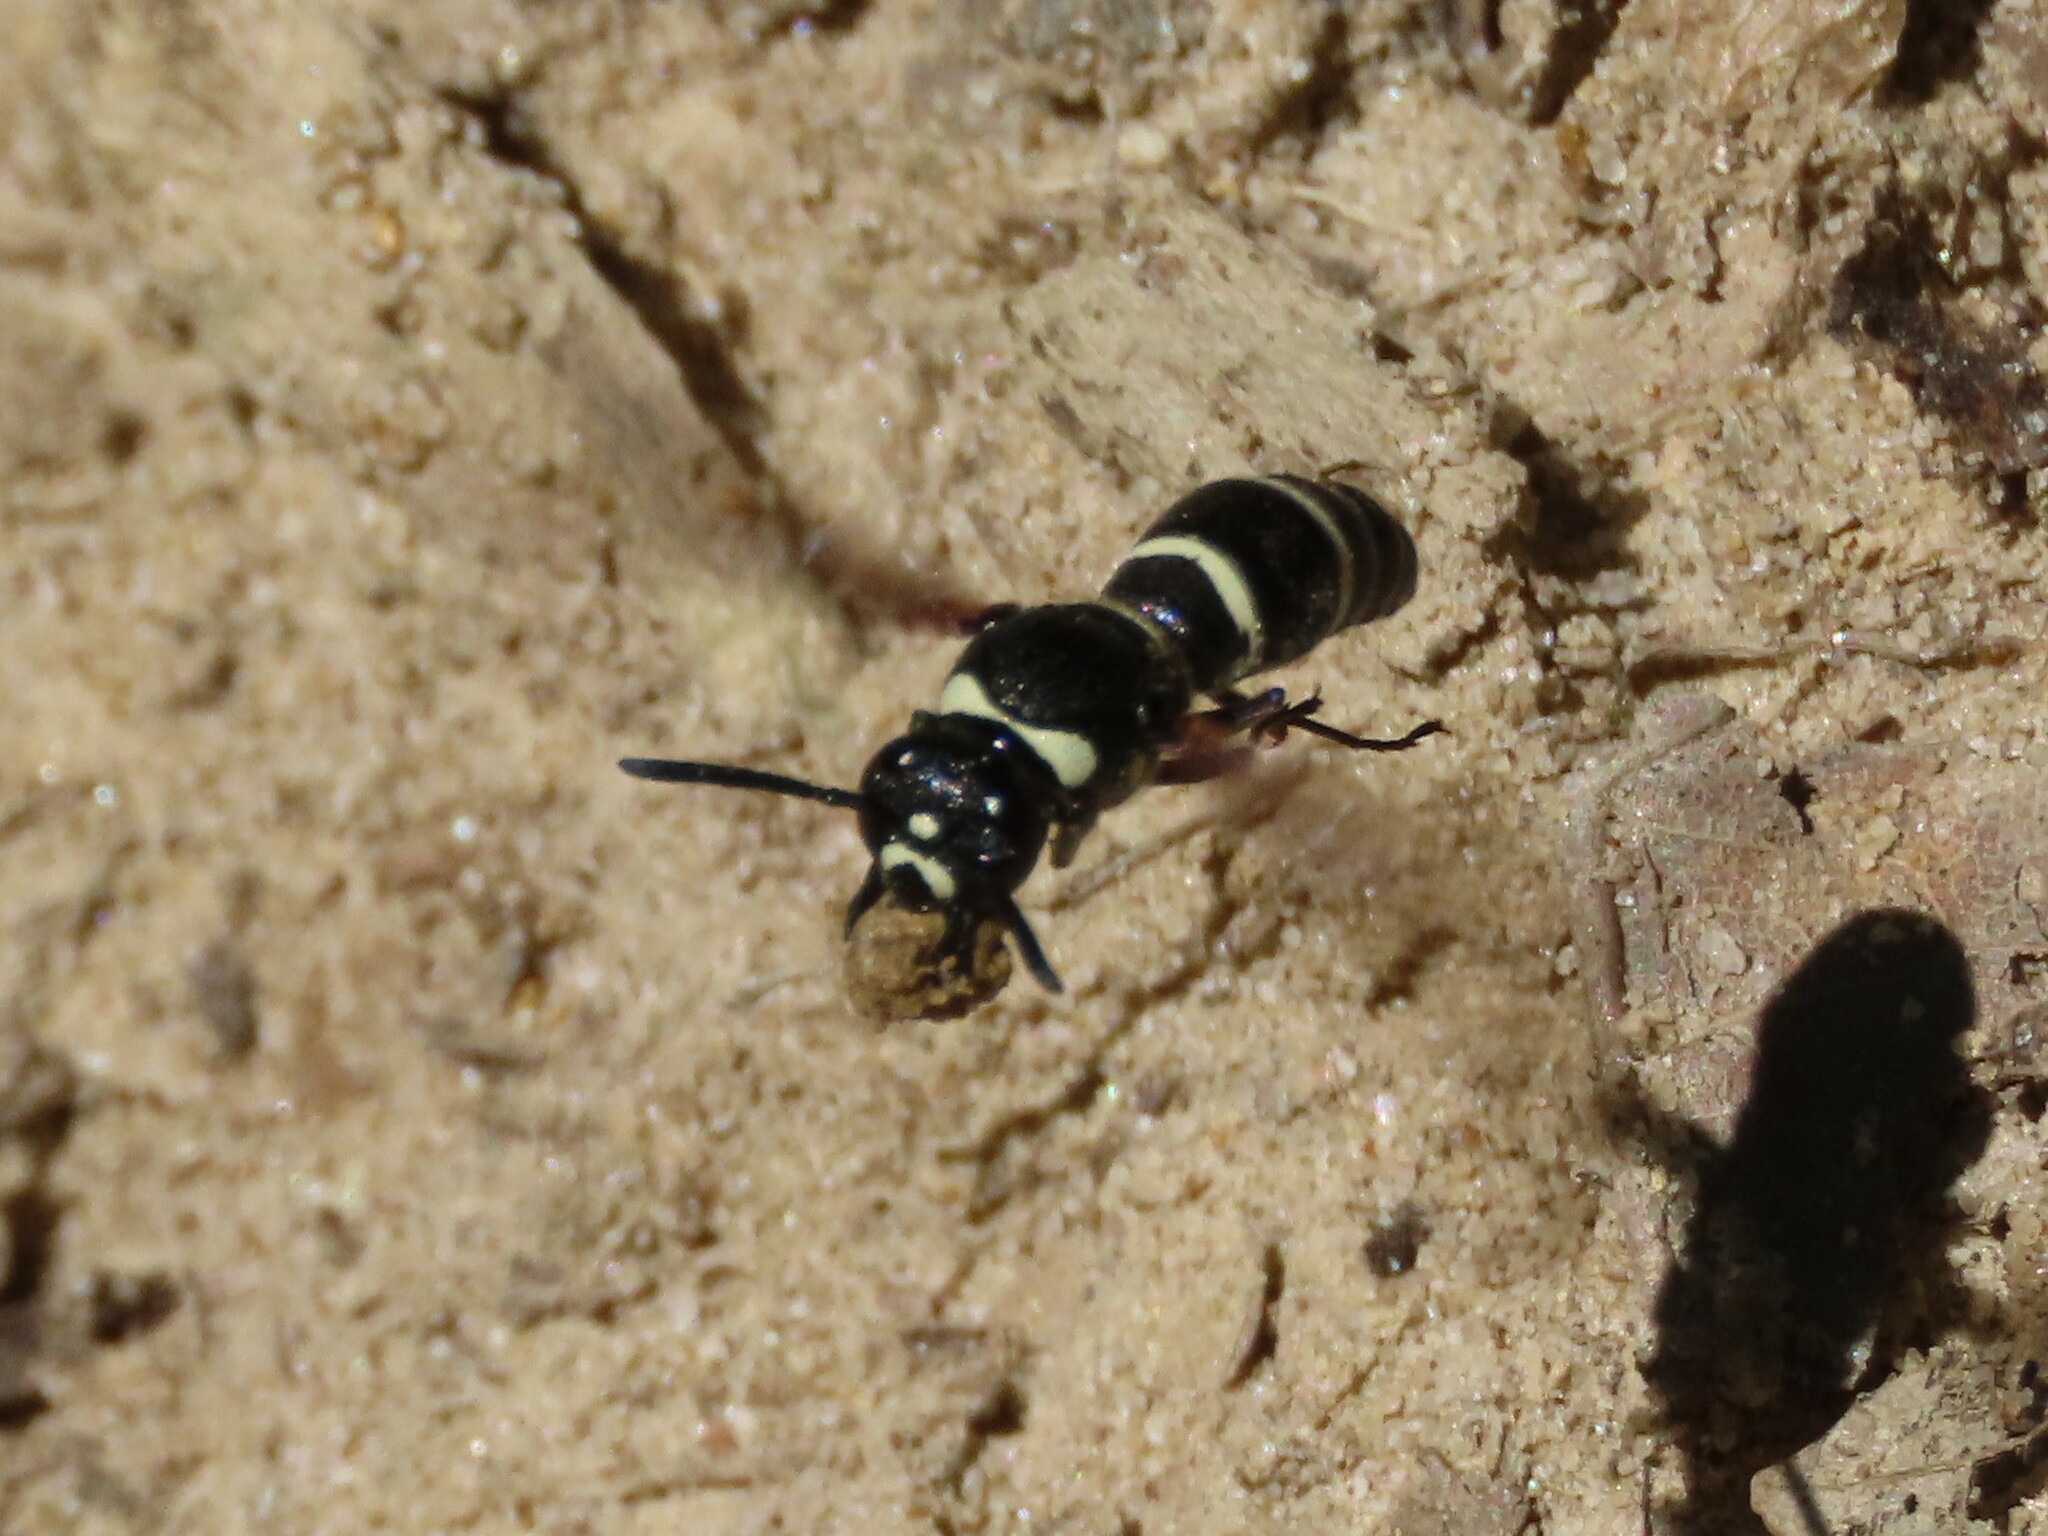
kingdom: Animalia
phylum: Arthropoda
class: Insecta
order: Hymenoptera
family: Eumenidae
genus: Euodynerus
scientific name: Euodynerus megaera
